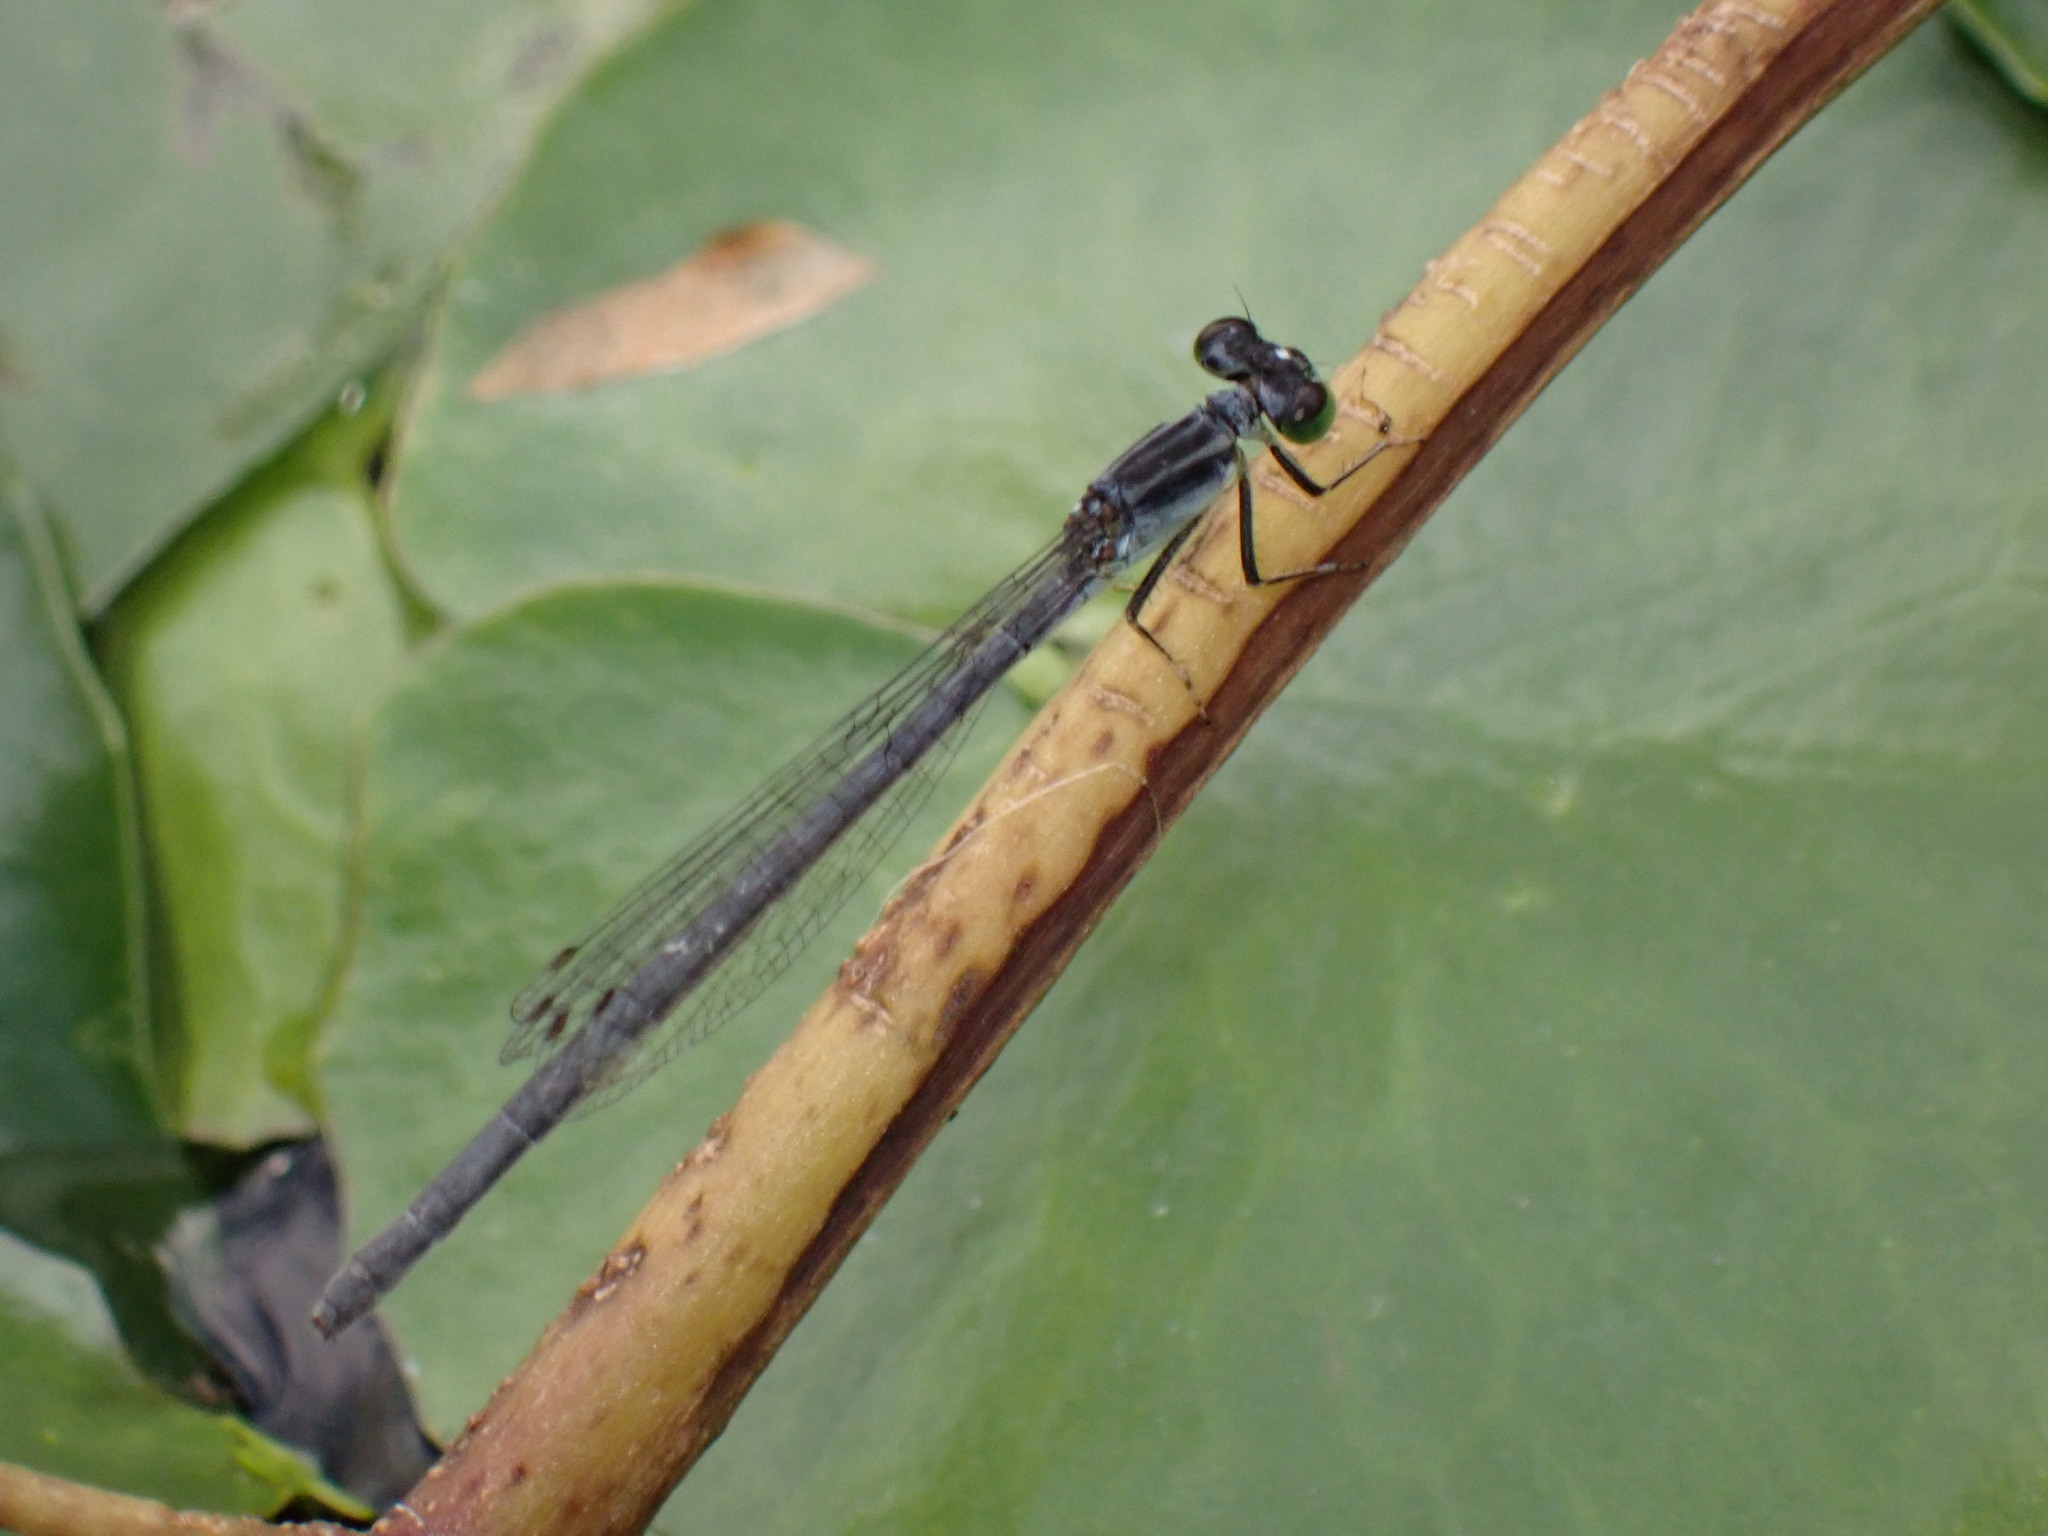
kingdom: Animalia
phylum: Arthropoda
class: Insecta
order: Odonata
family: Coenagrionidae
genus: Ischnura
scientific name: Ischnura verticalis
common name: Eastern forktail
